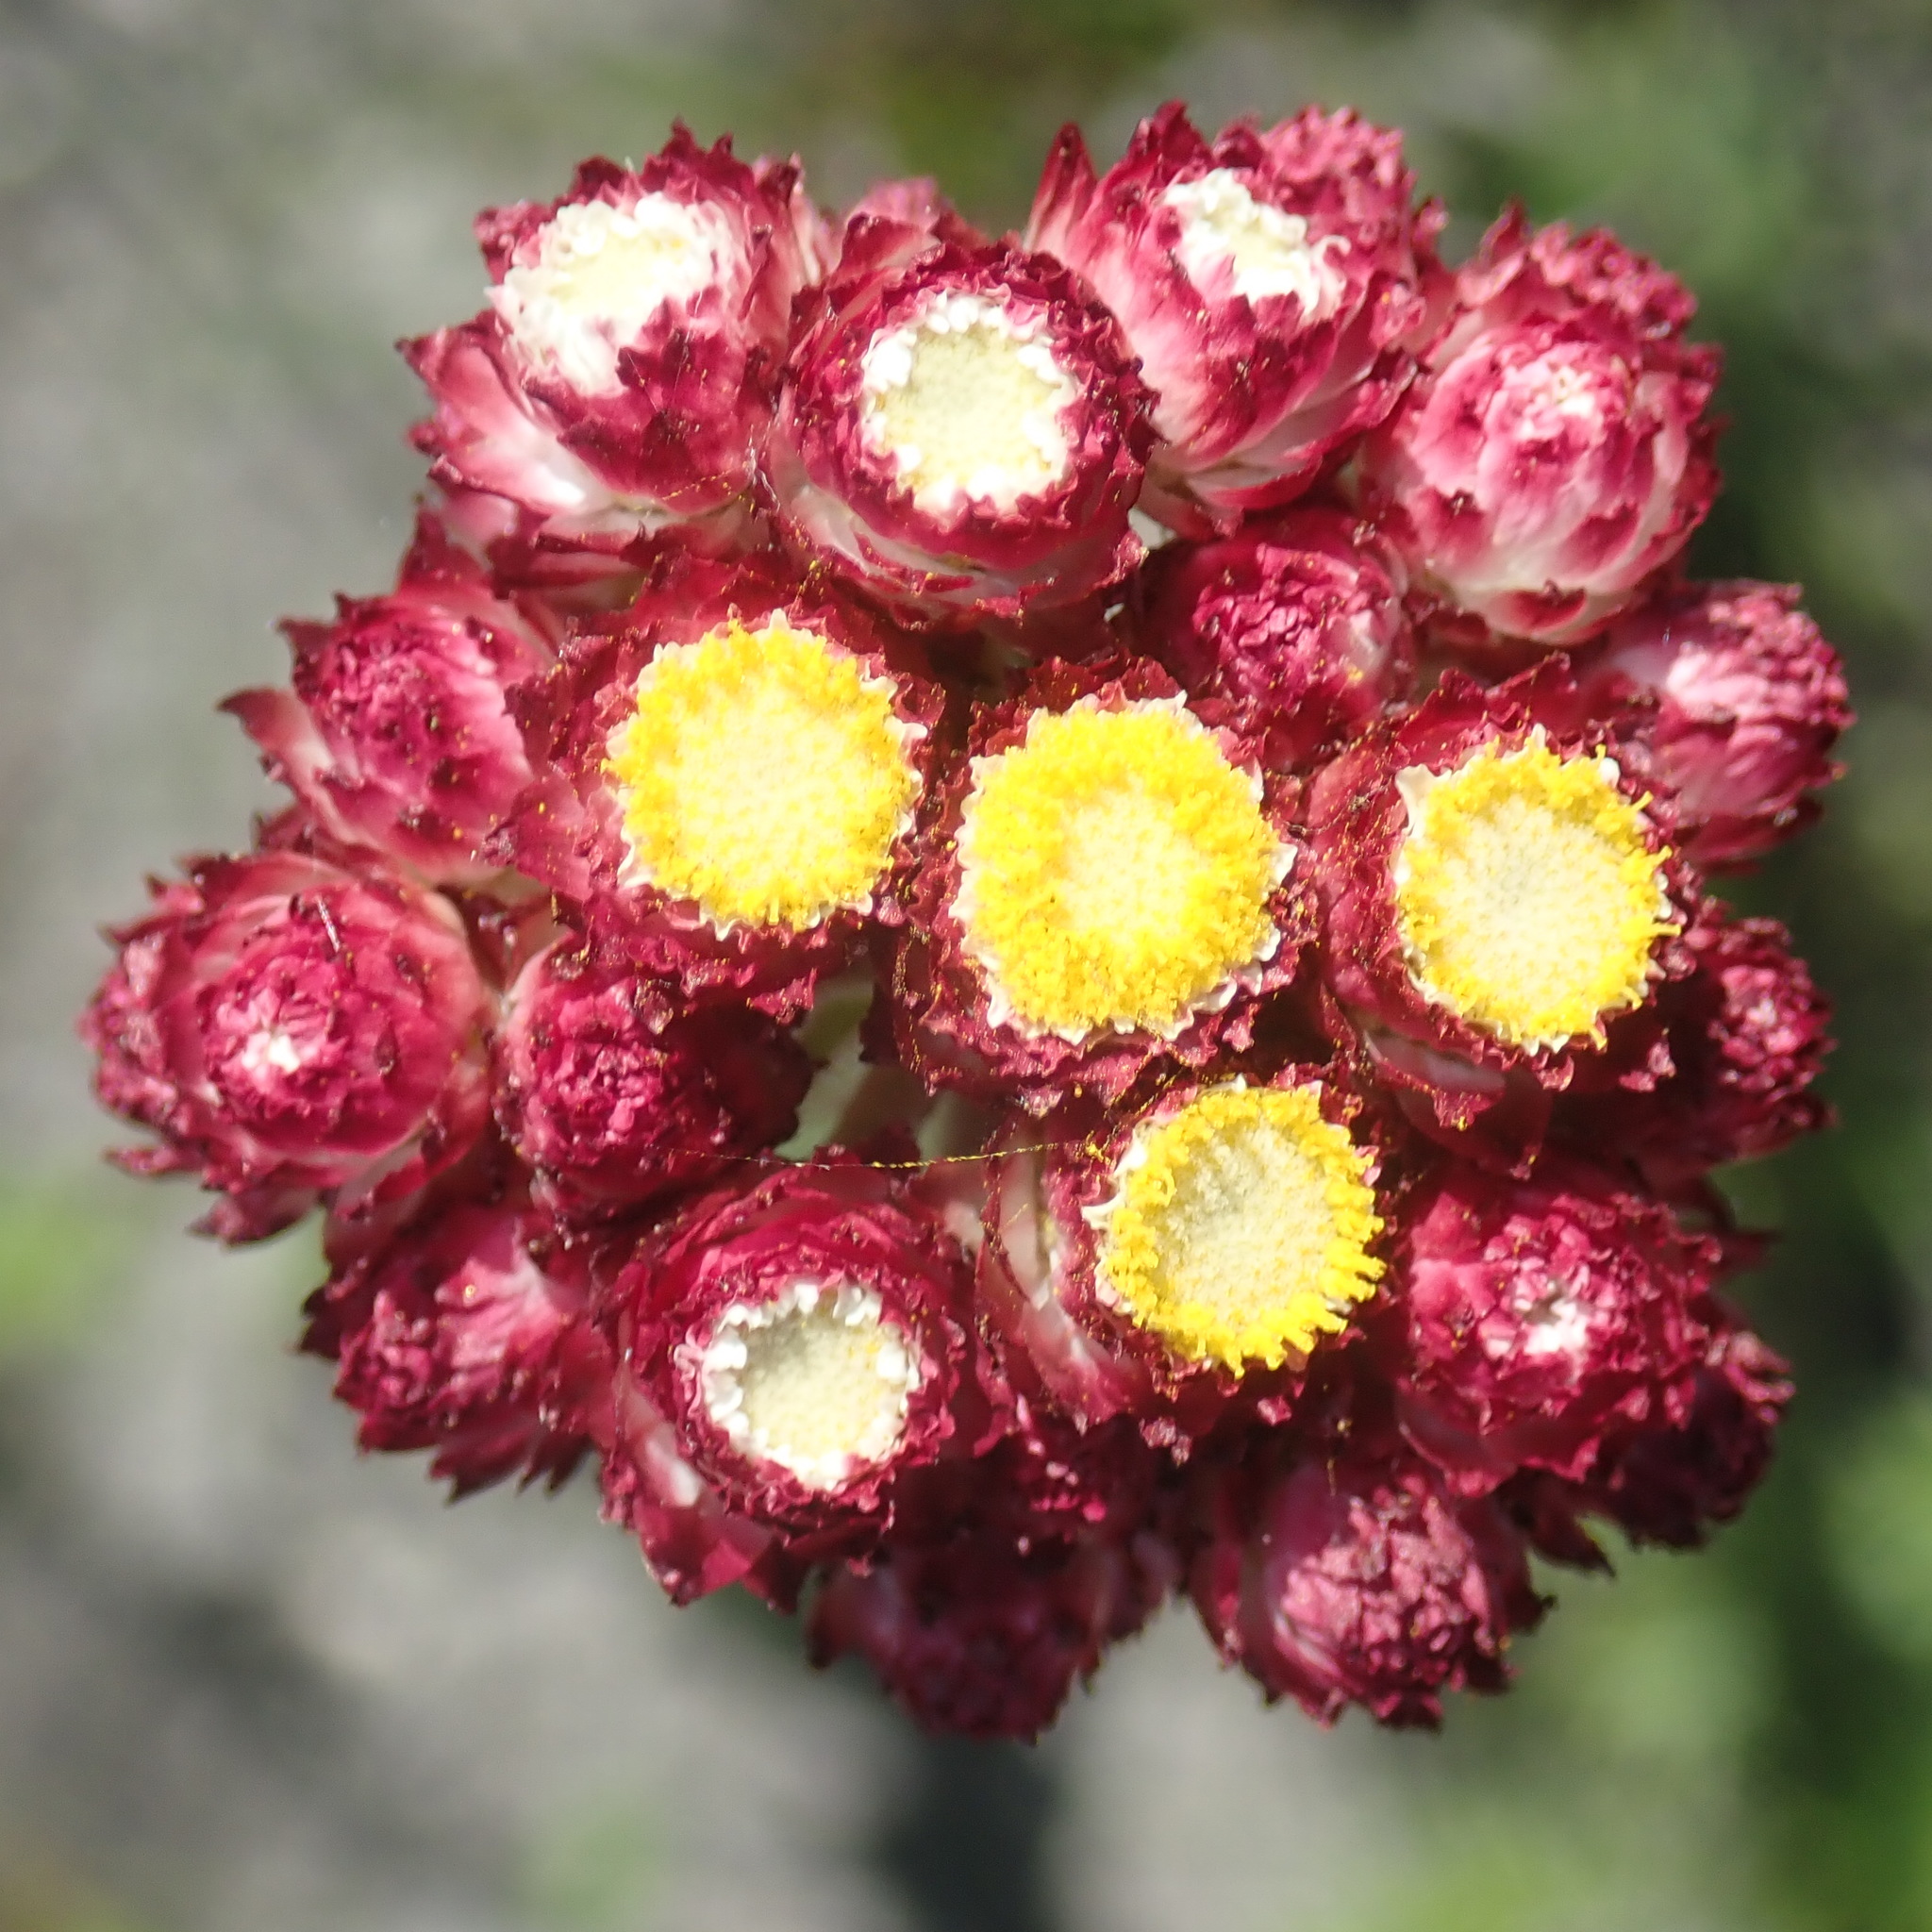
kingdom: Plantae
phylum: Tracheophyta
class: Magnoliopsida
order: Asterales
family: Asteraceae
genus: Helichrysum
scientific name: Helichrysum felinum
